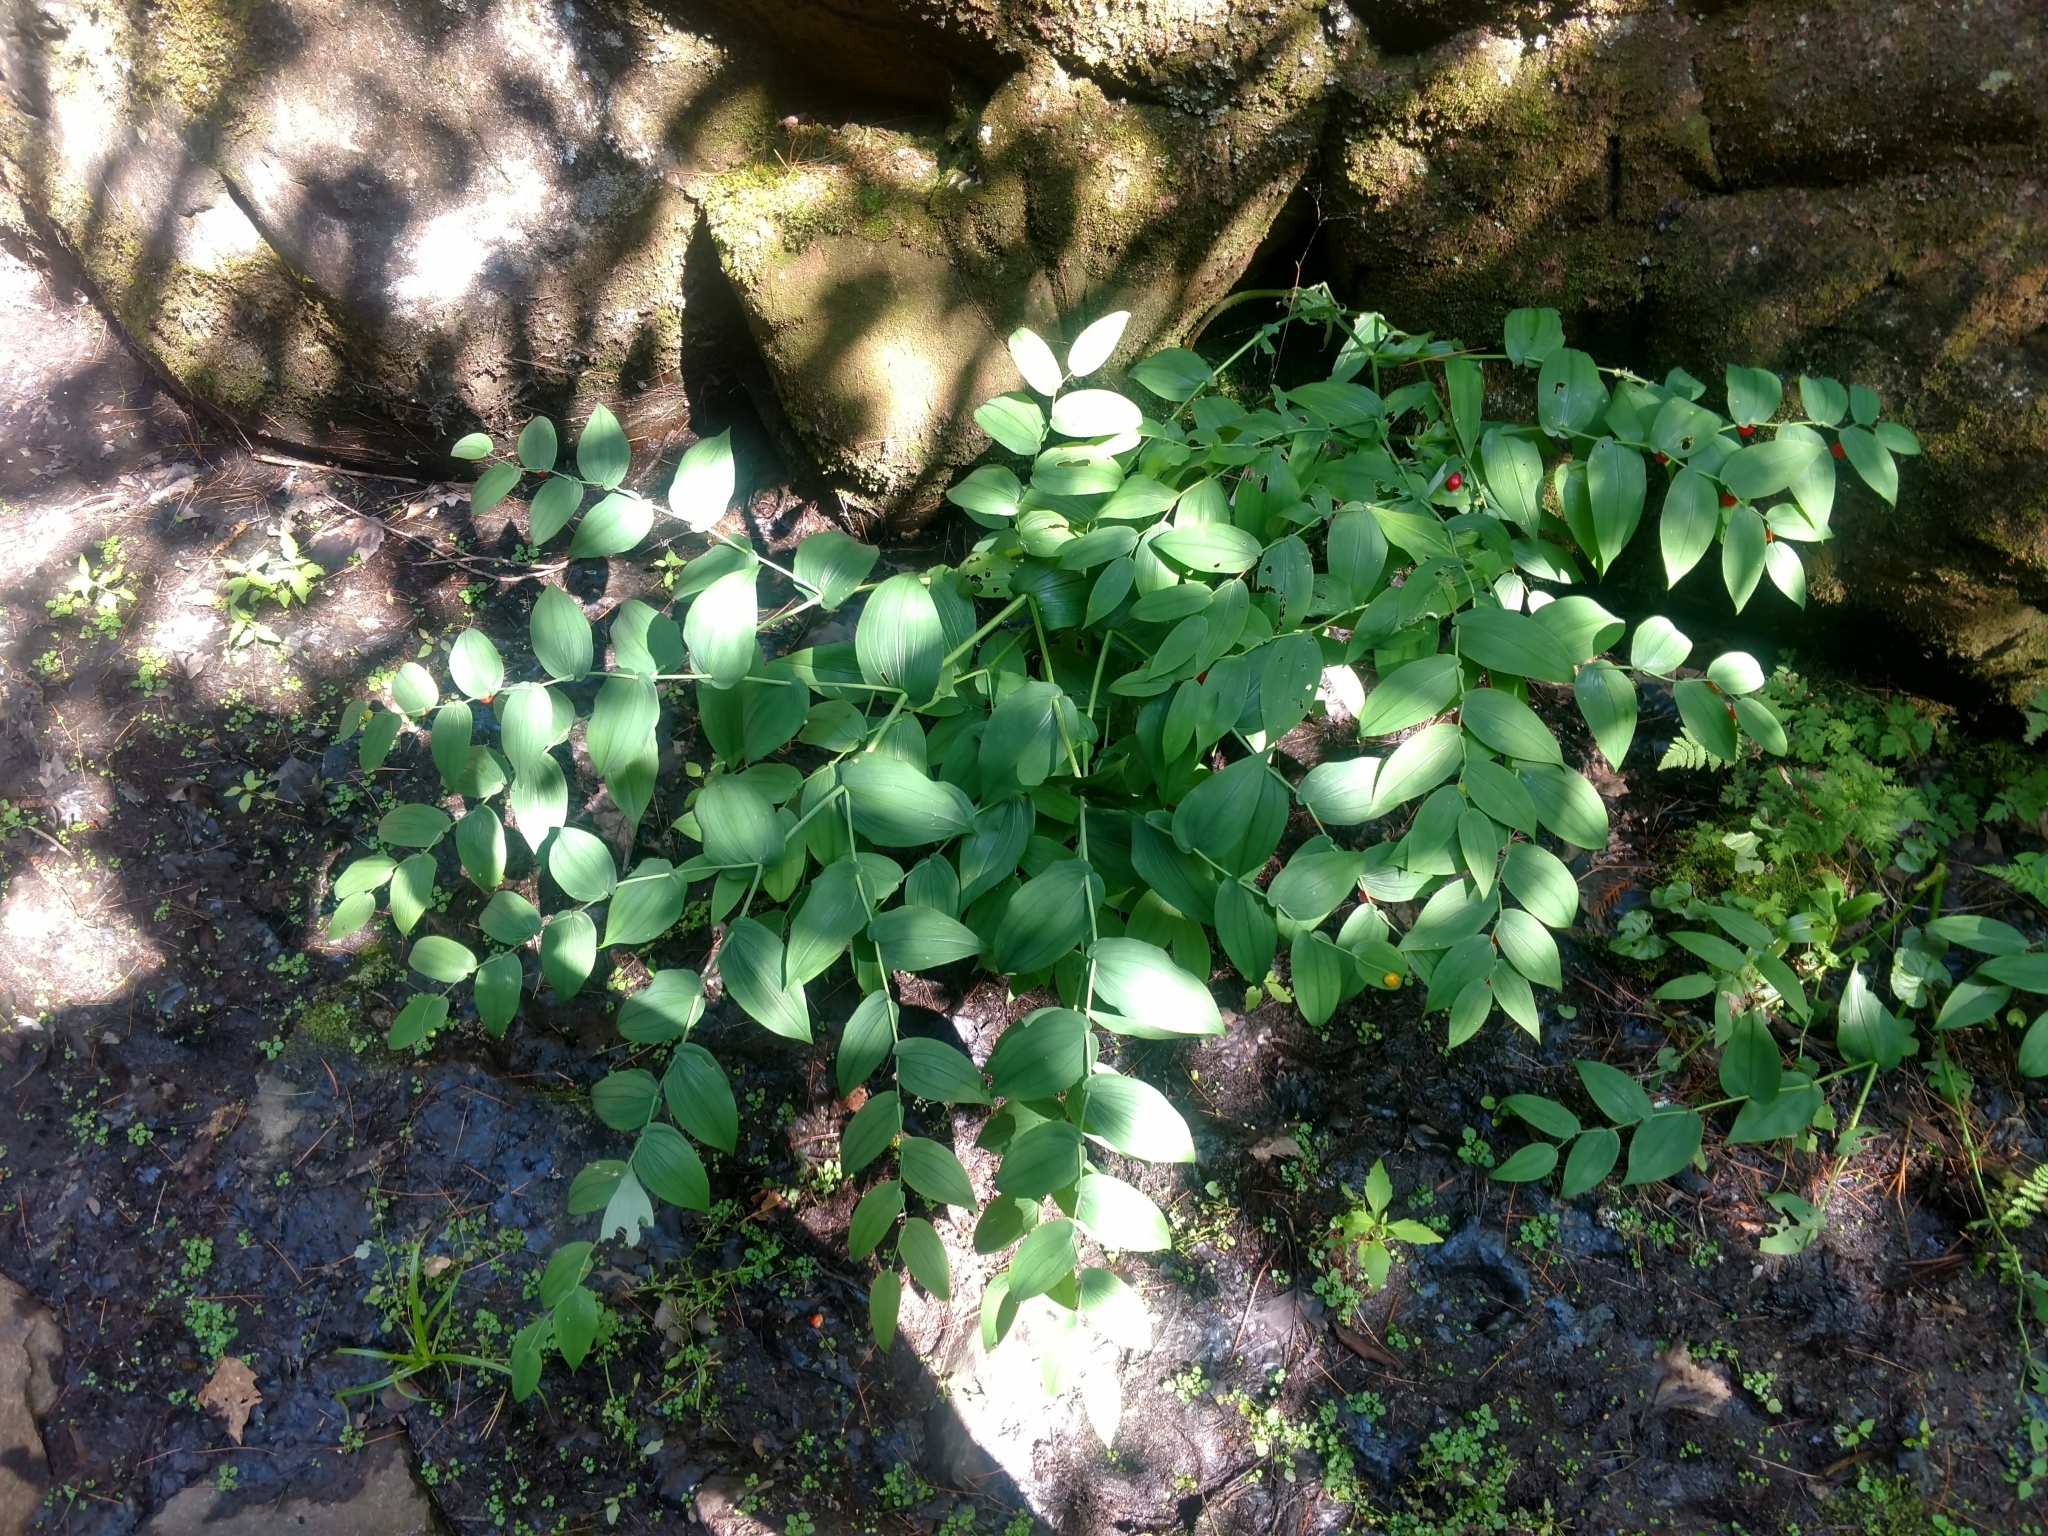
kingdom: Plantae
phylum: Tracheophyta
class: Liliopsida
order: Liliales
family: Liliaceae
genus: Streptopus
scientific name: Streptopus amplexifolius
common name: Clasp twisted stalk
